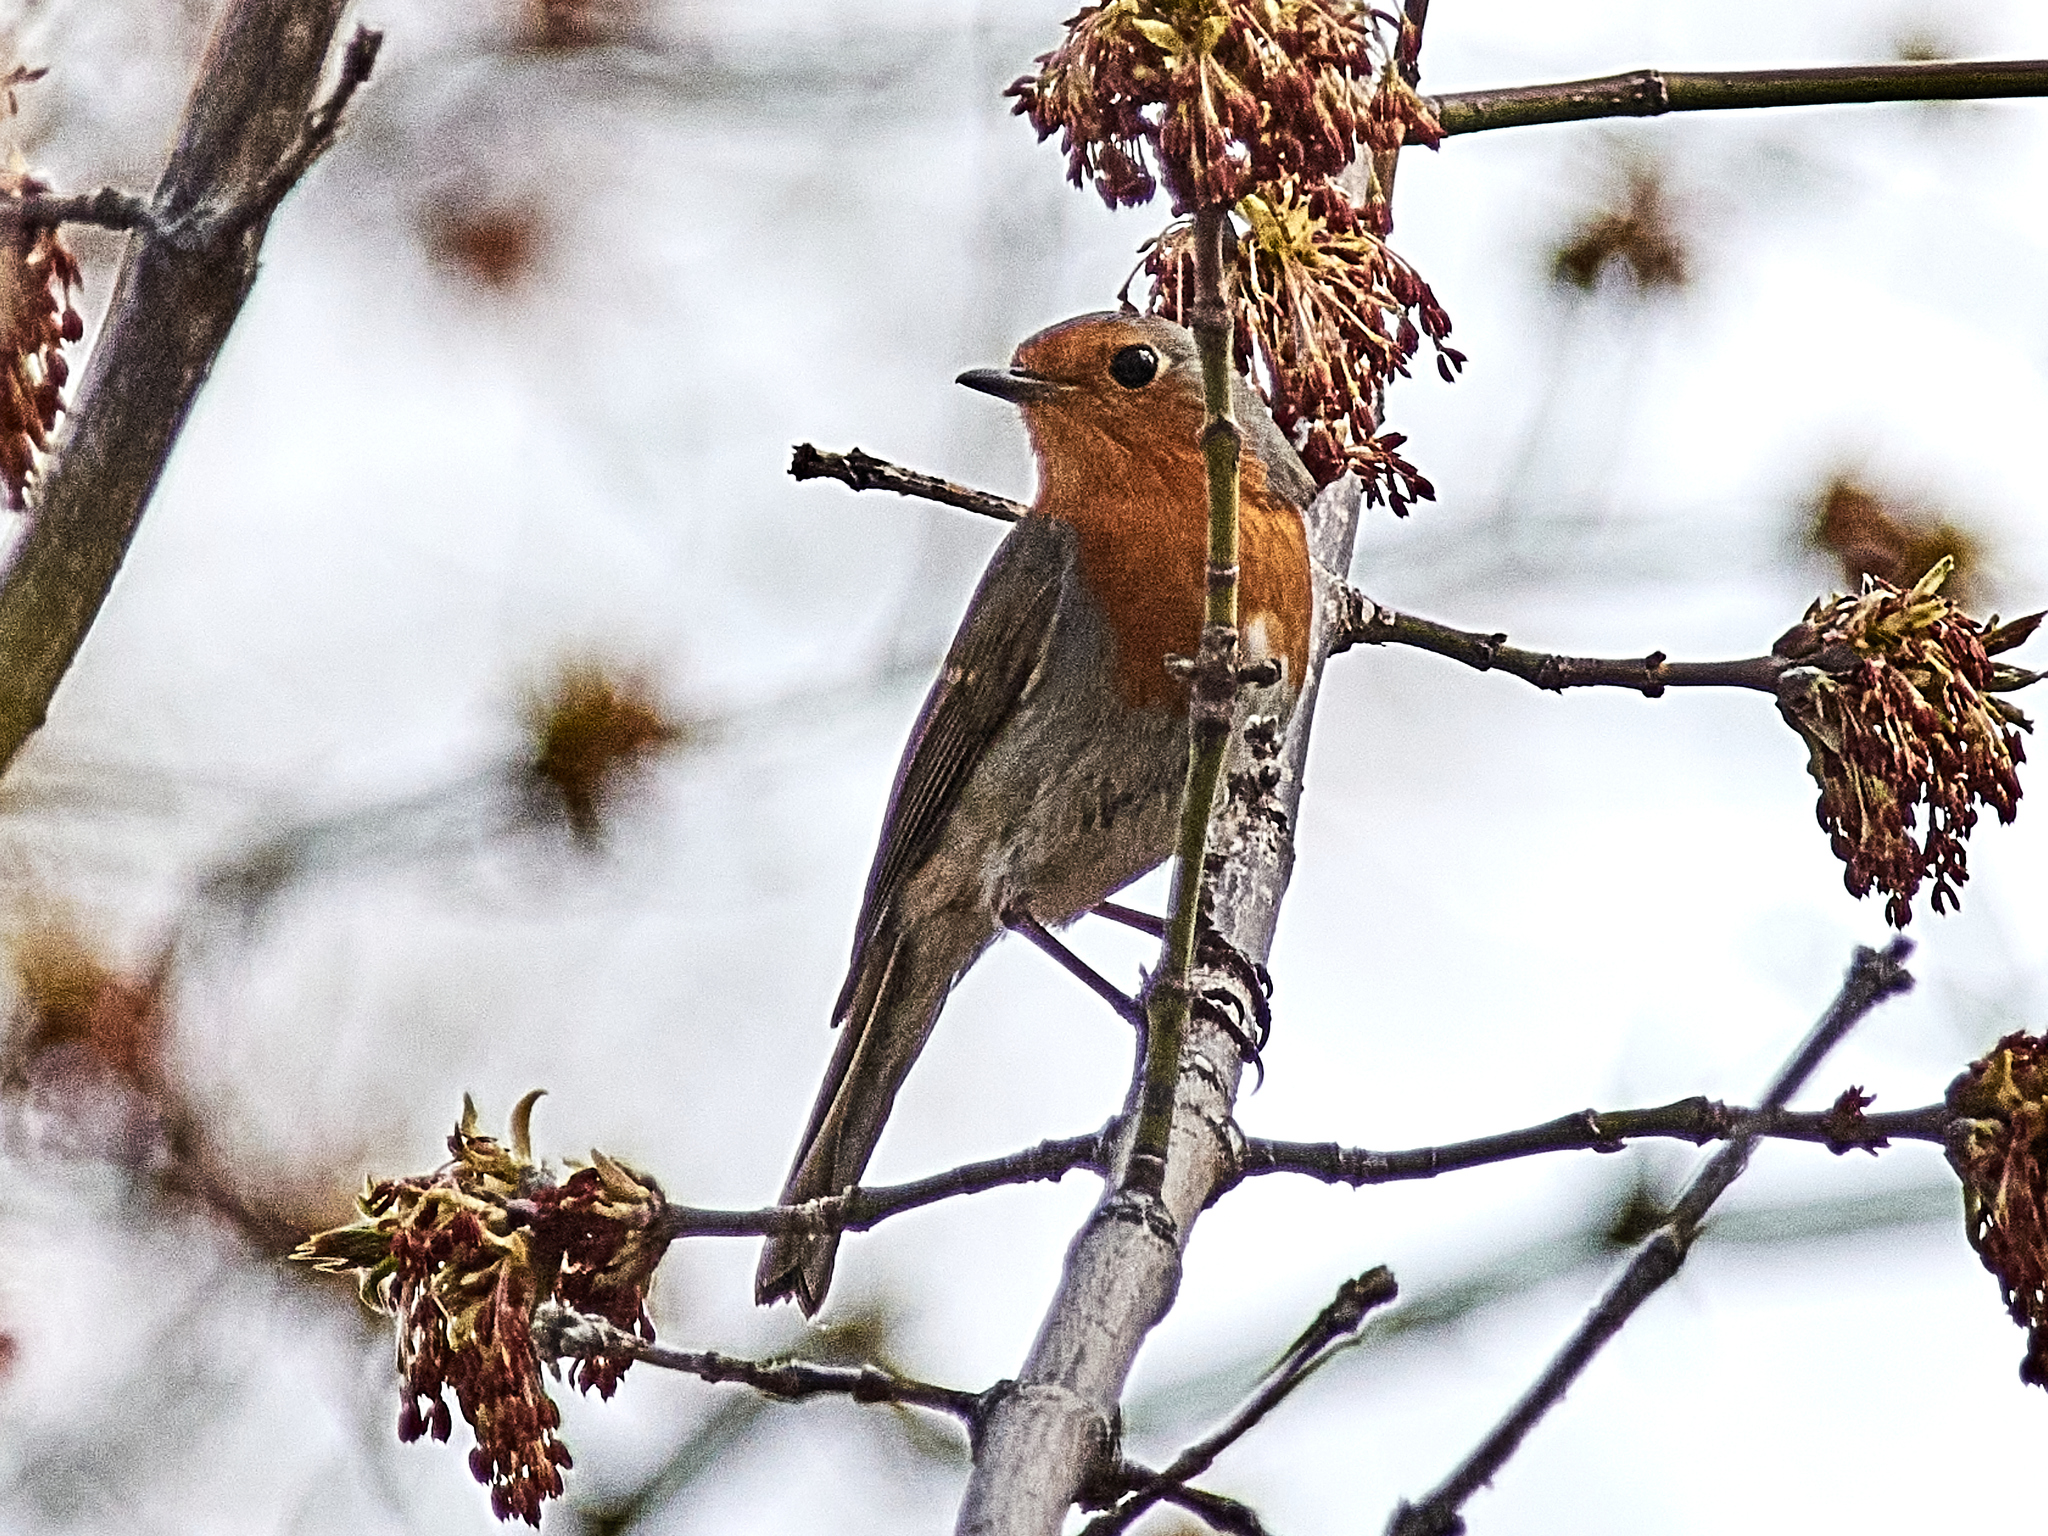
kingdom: Animalia
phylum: Chordata
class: Aves
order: Passeriformes
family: Muscicapidae
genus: Erithacus
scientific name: Erithacus rubecula
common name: European robin
